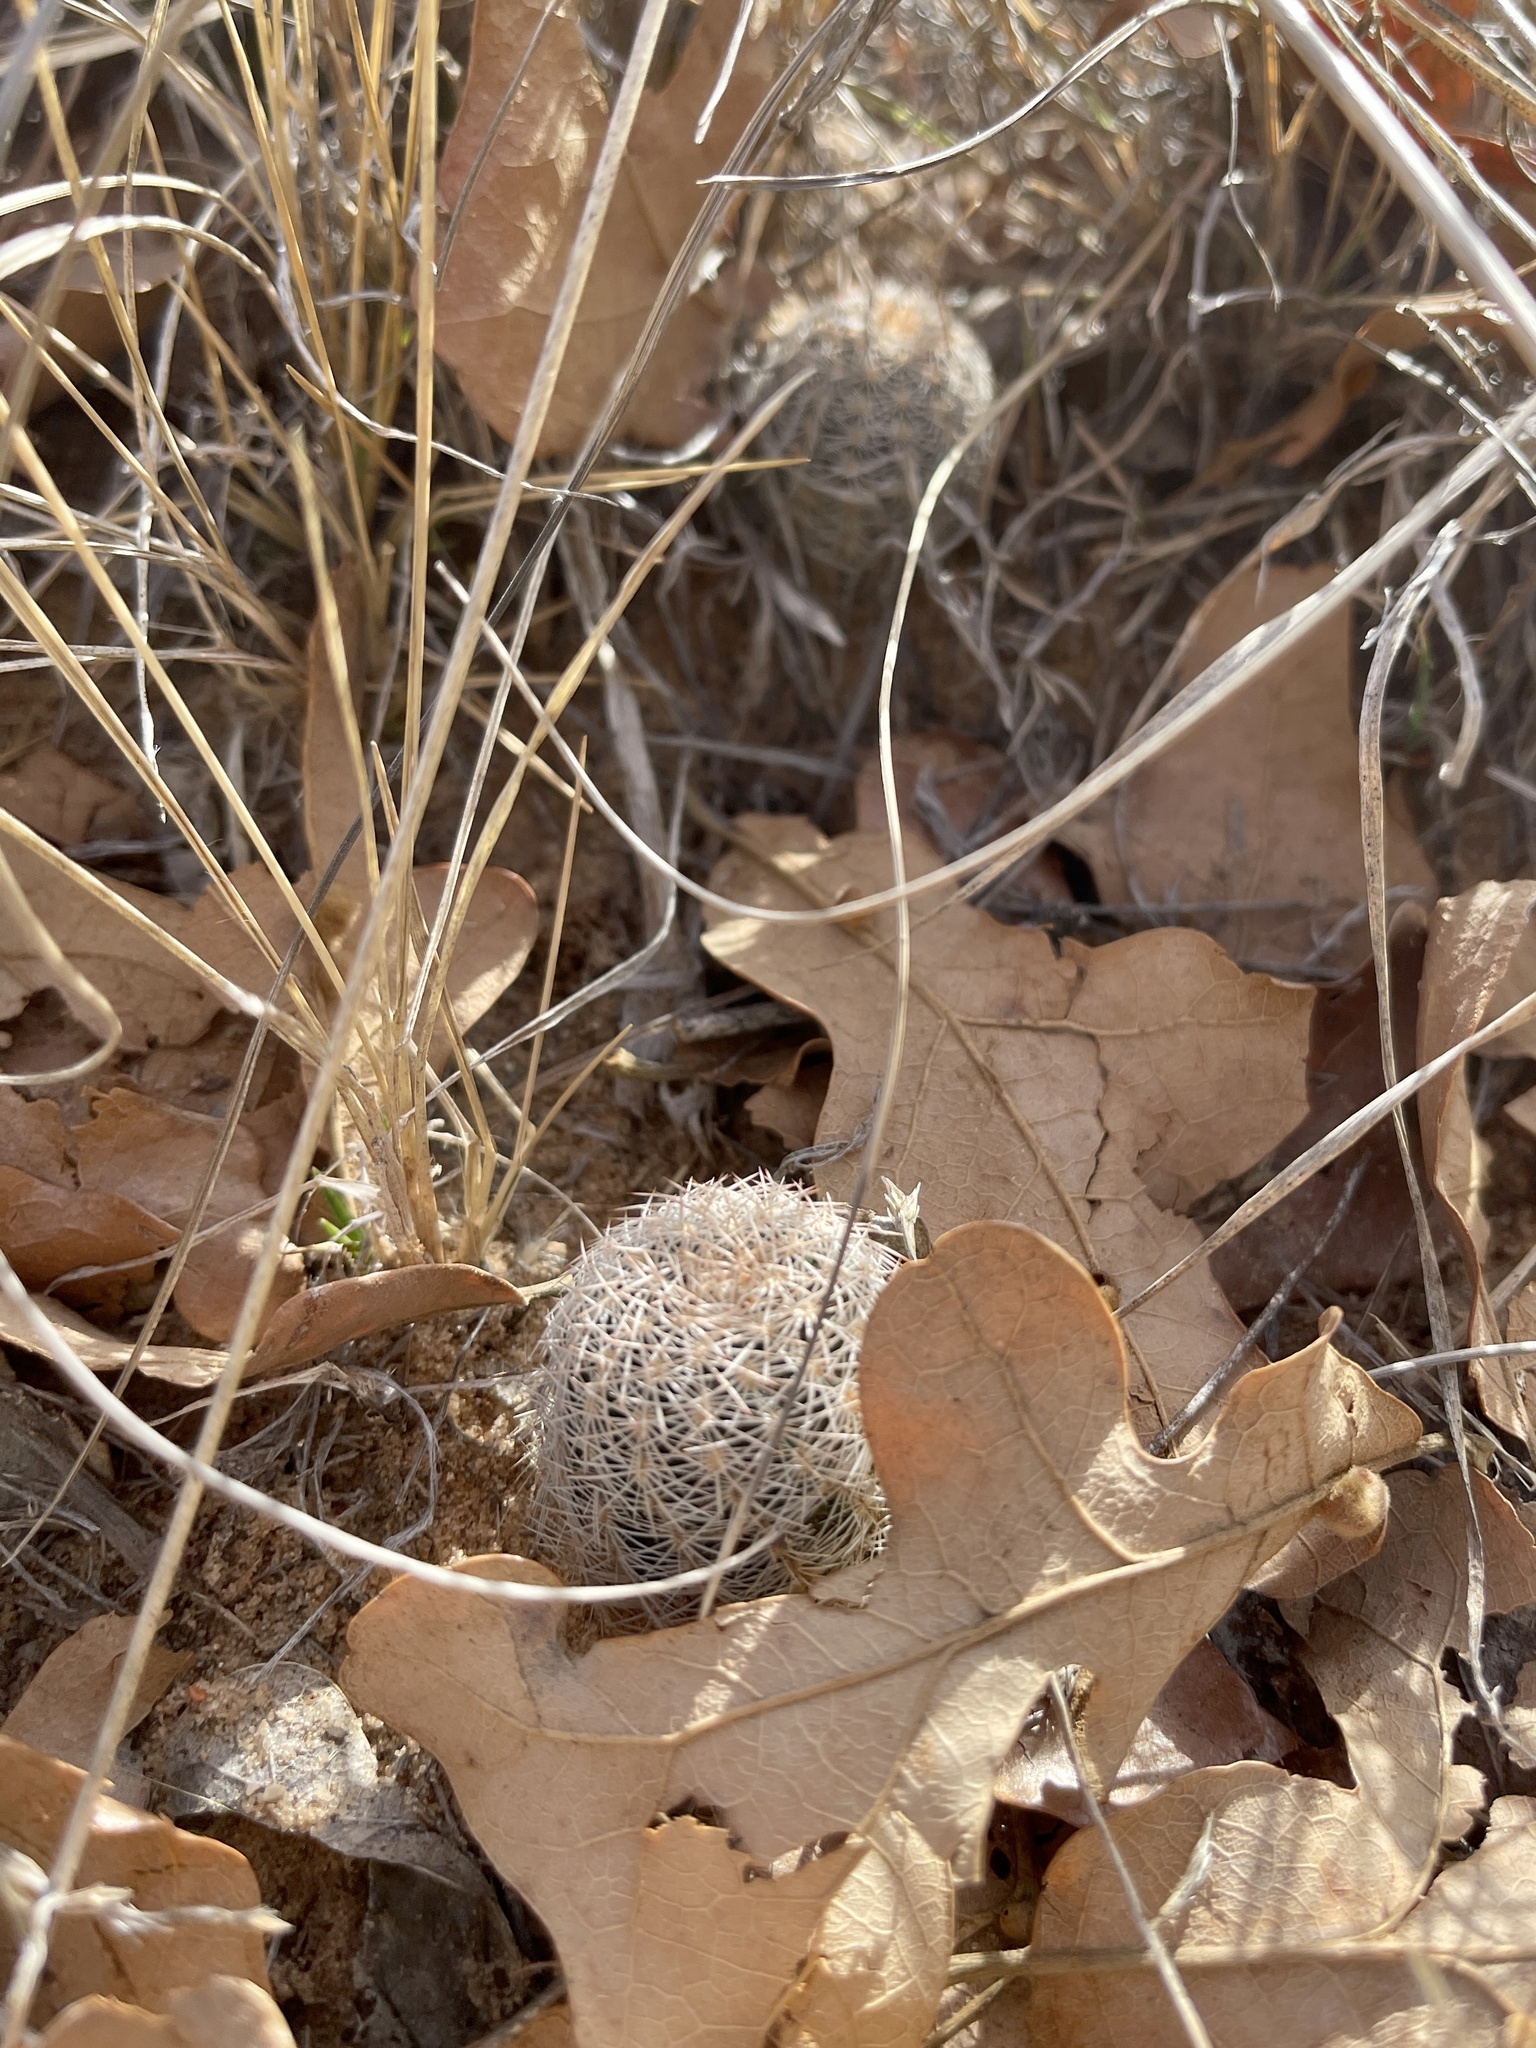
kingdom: Plantae
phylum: Tracheophyta
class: Magnoliopsida
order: Caryophyllales
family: Cactaceae
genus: Echinocereus
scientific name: Echinocereus reichenbachii
